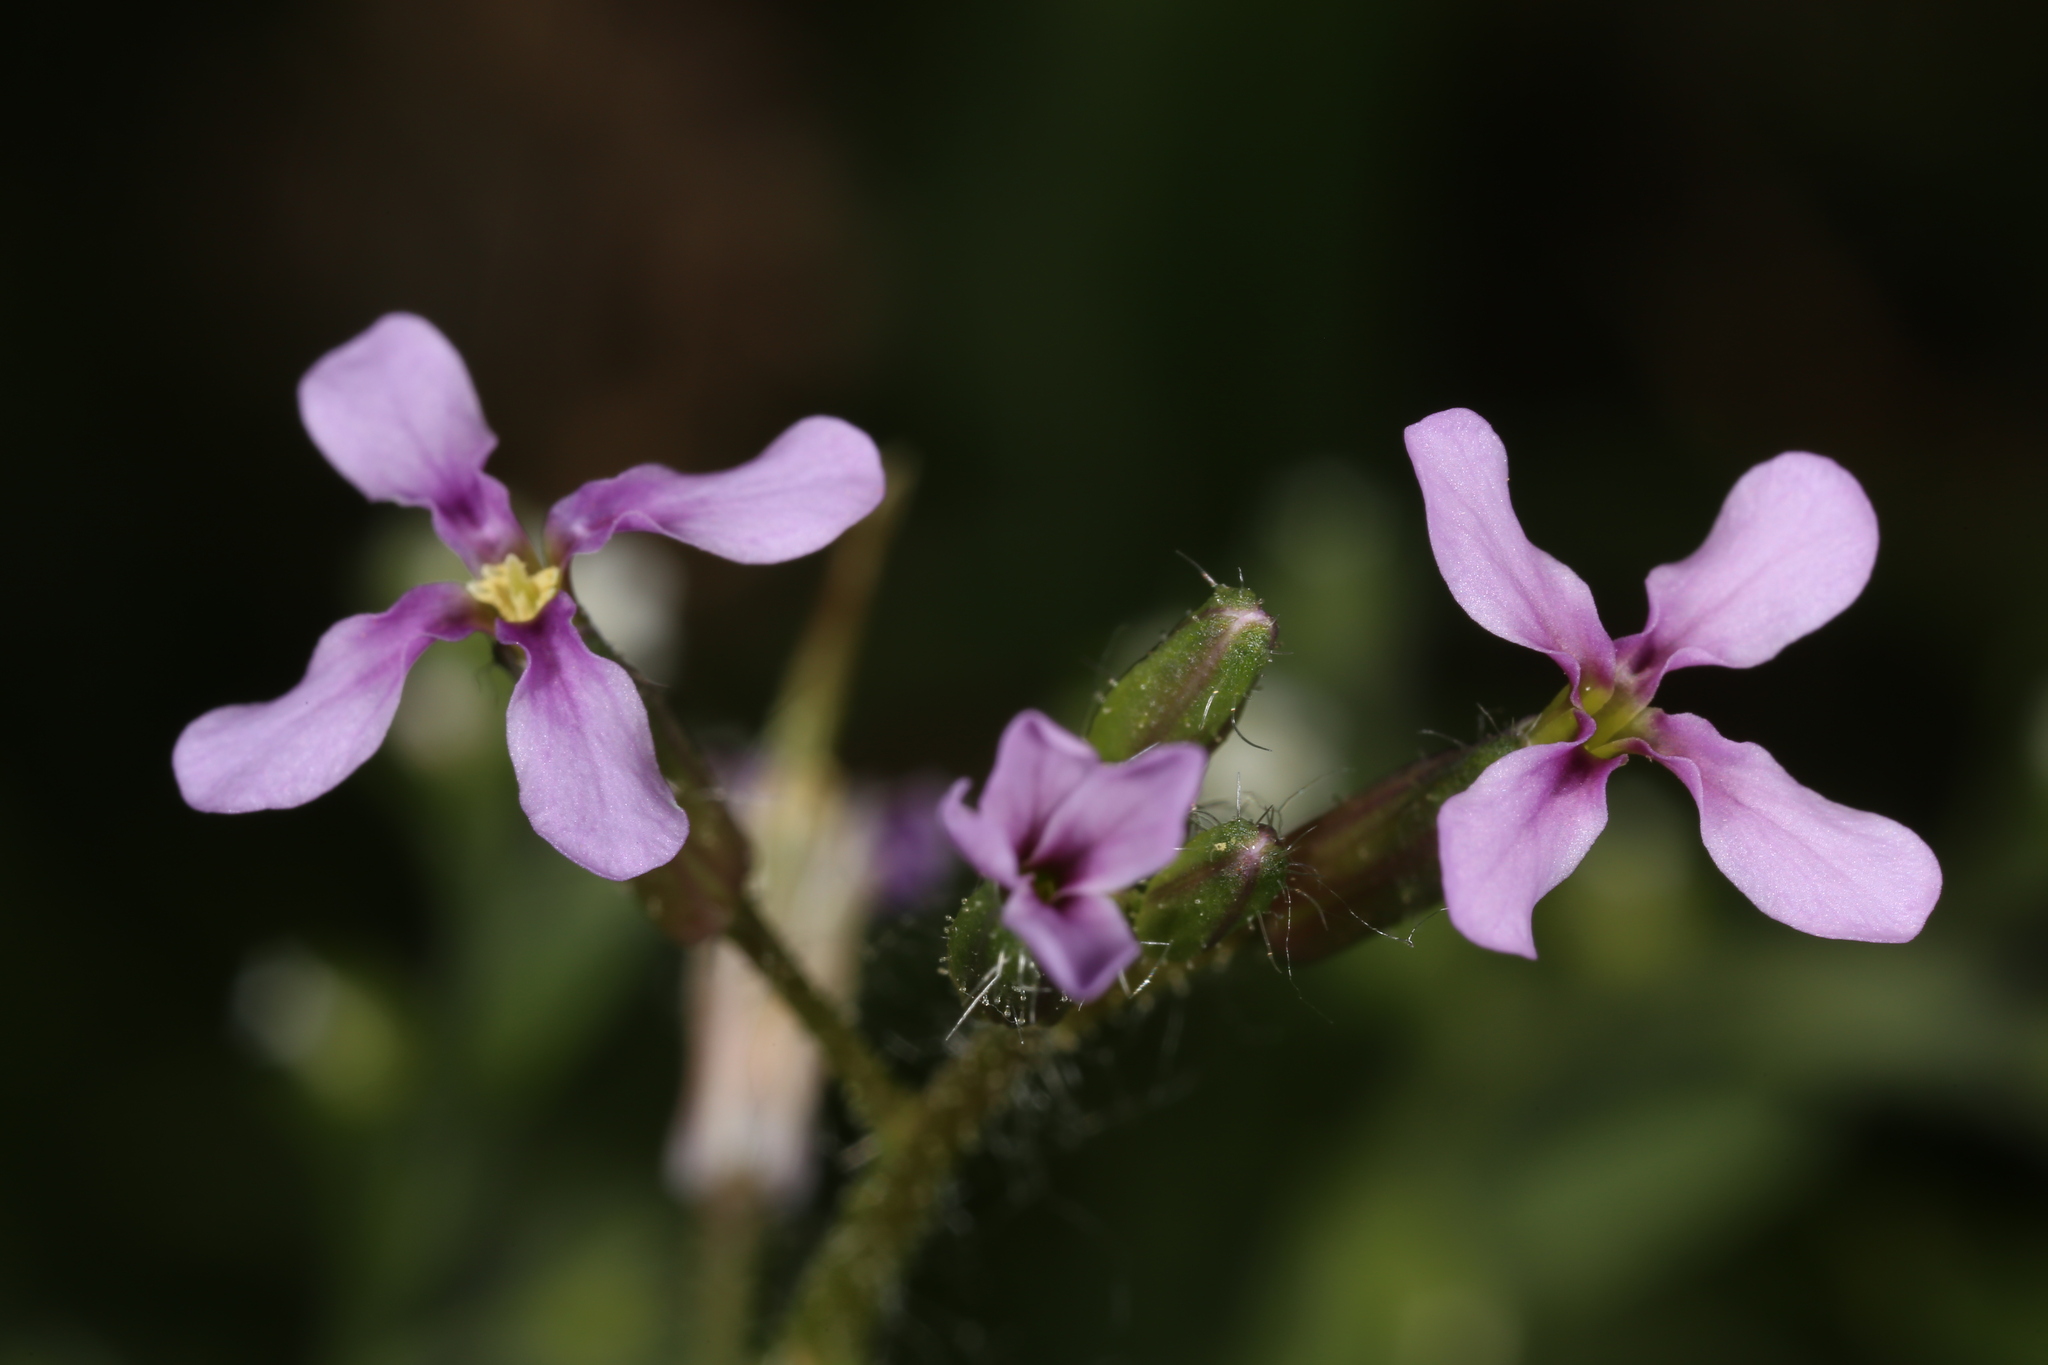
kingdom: Plantae
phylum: Tracheophyta
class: Magnoliopsida
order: Brassicales
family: Brassicaceae
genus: Chorispora
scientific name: Chorispora tenella
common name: Crossflower
